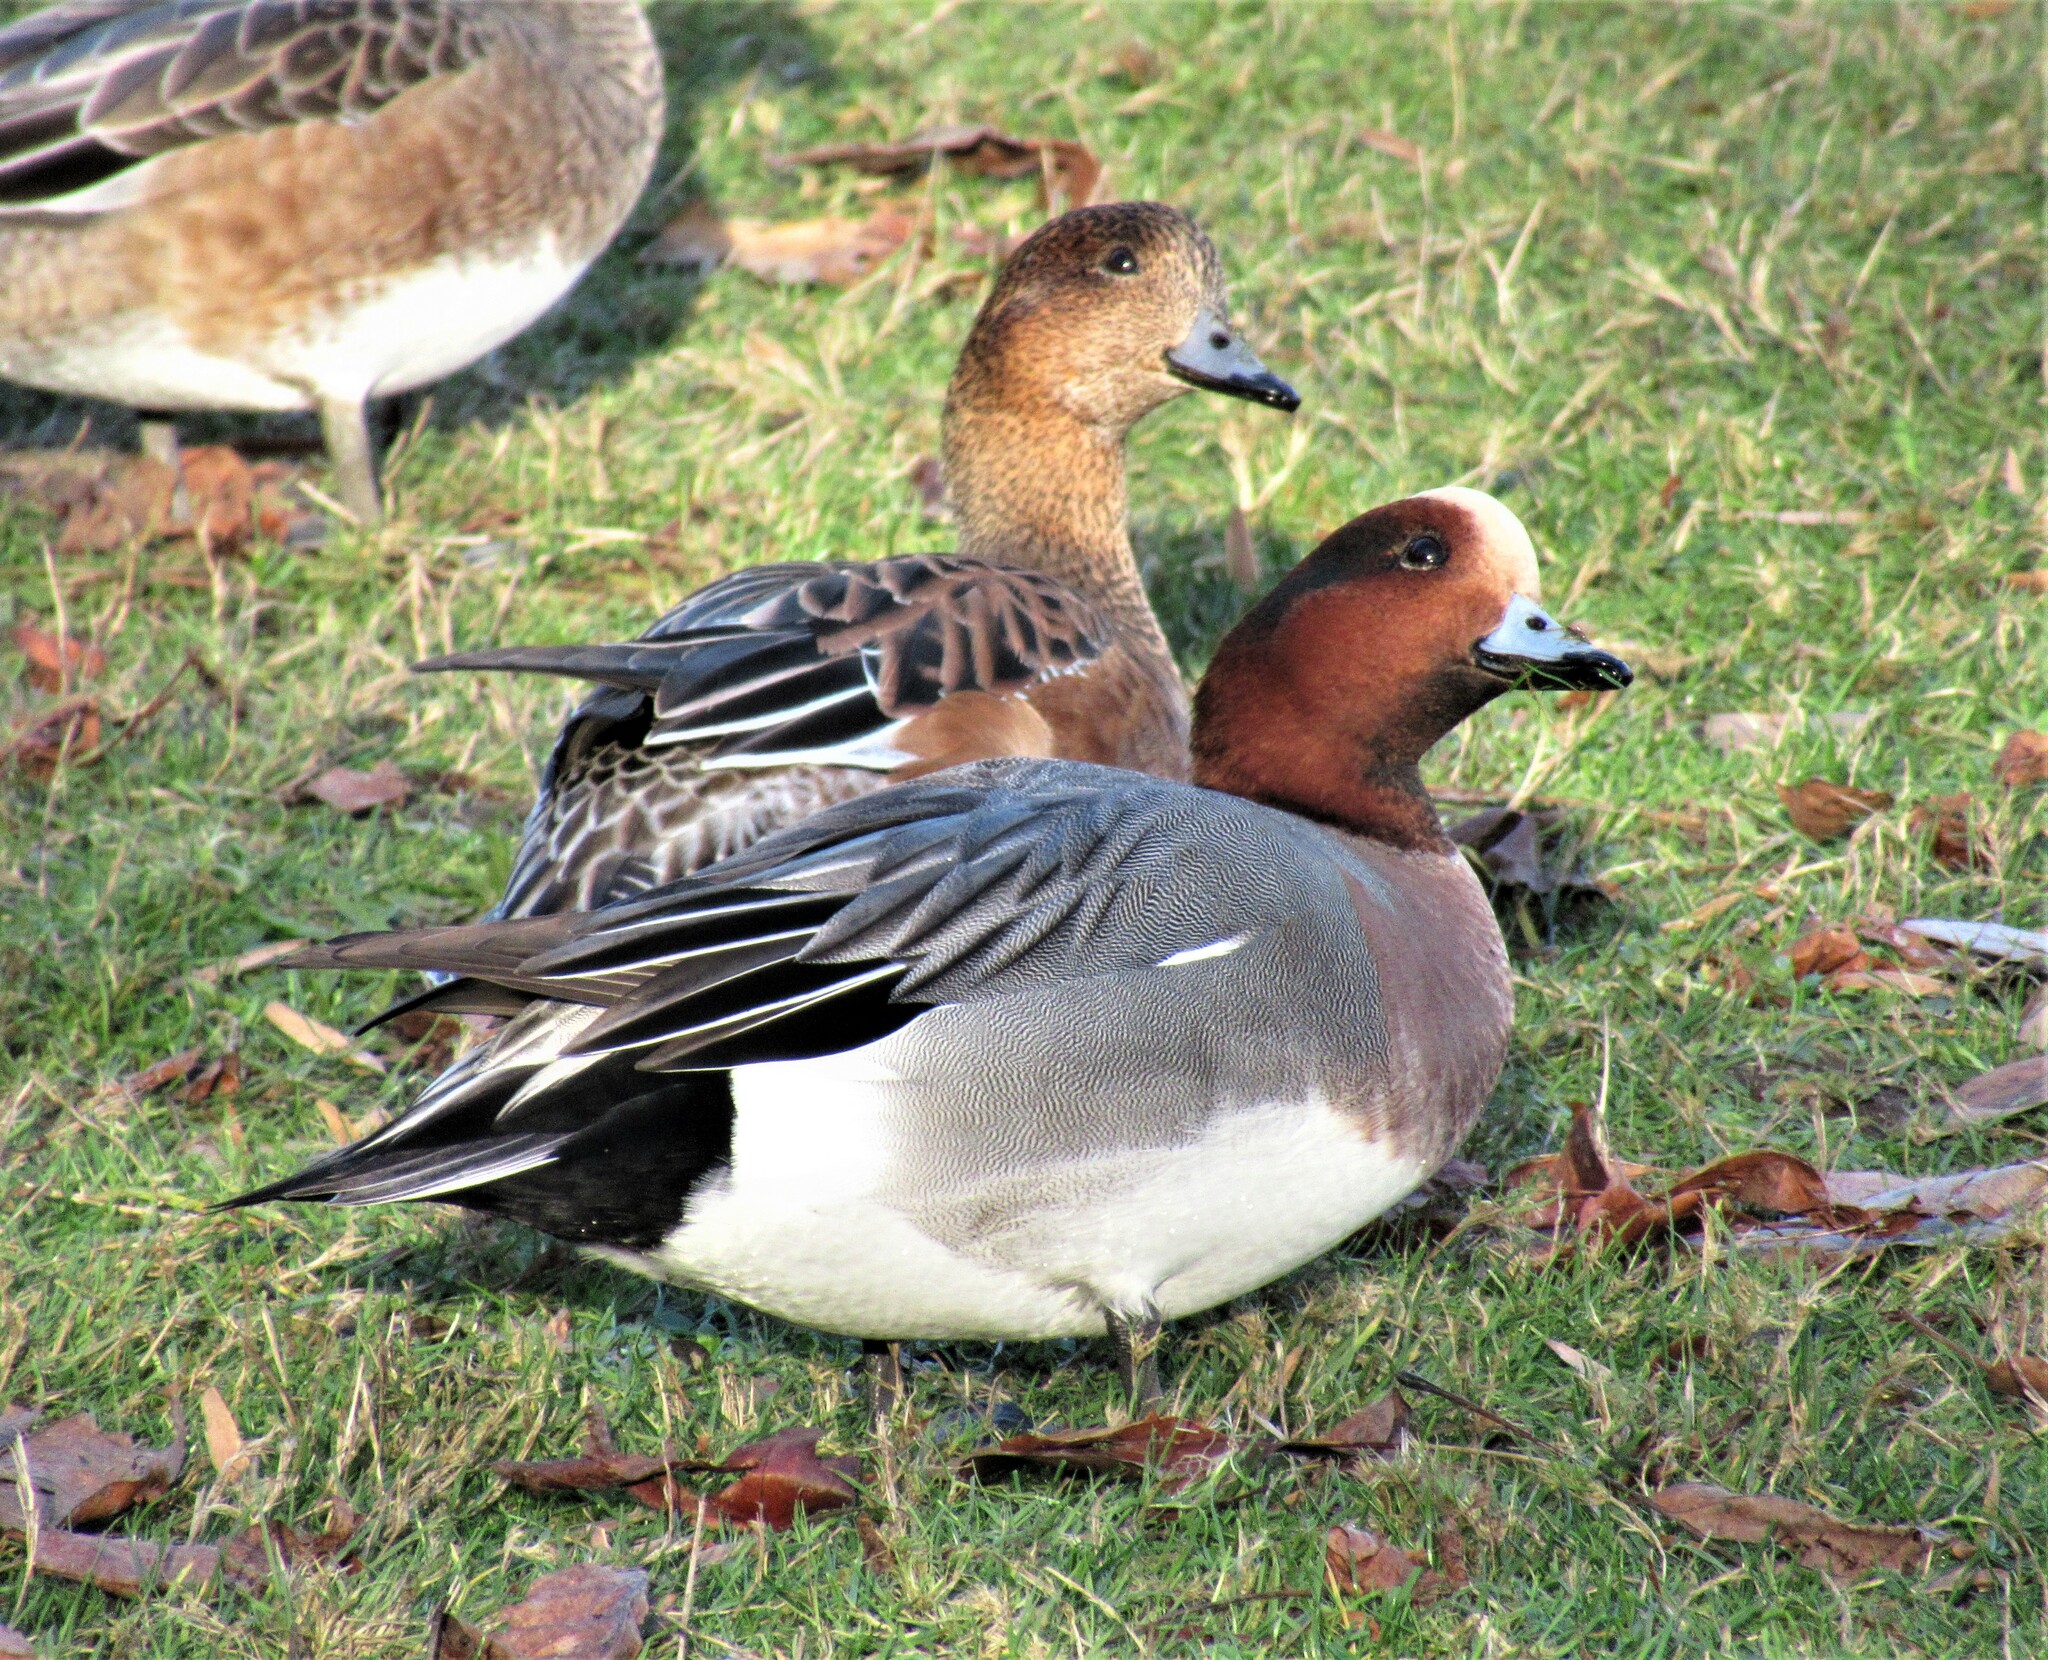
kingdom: Animalia
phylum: Chordata
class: Aves
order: Anseriformes
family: Anatidae
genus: Mareca
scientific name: Mareca penelope
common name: Eurasian wigeon
